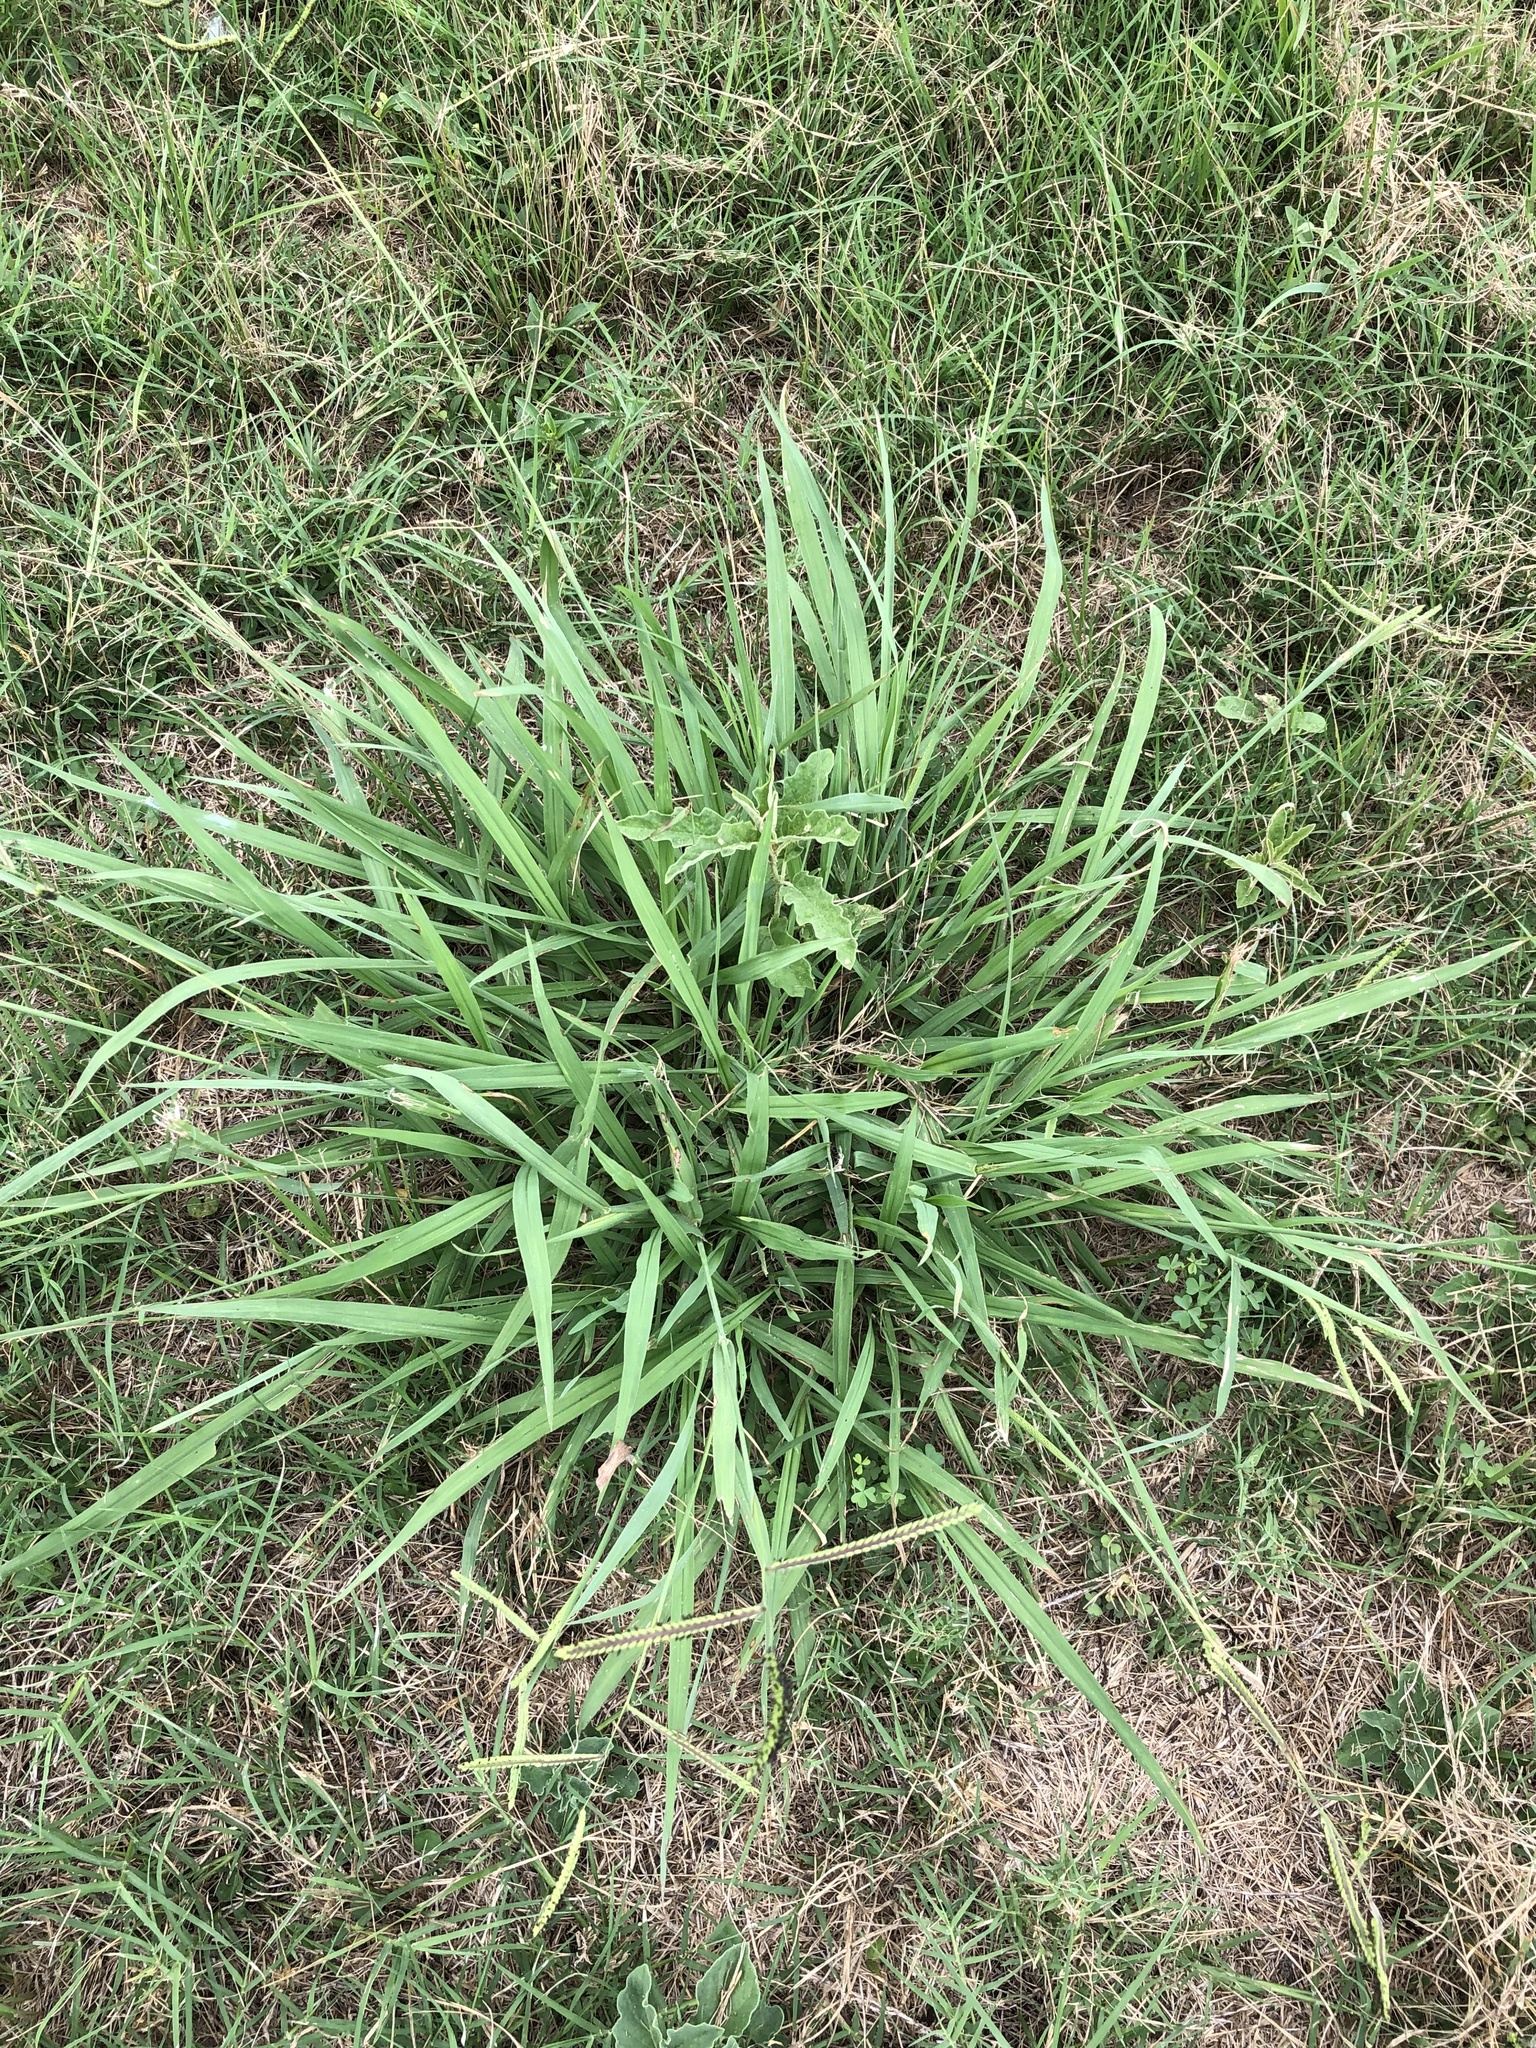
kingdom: Plantae
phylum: Tracheophyta
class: Liliopsida
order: Poales
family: Poaceae
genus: Paspalum
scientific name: Paspalum dilatatum
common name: Dallisgrass
